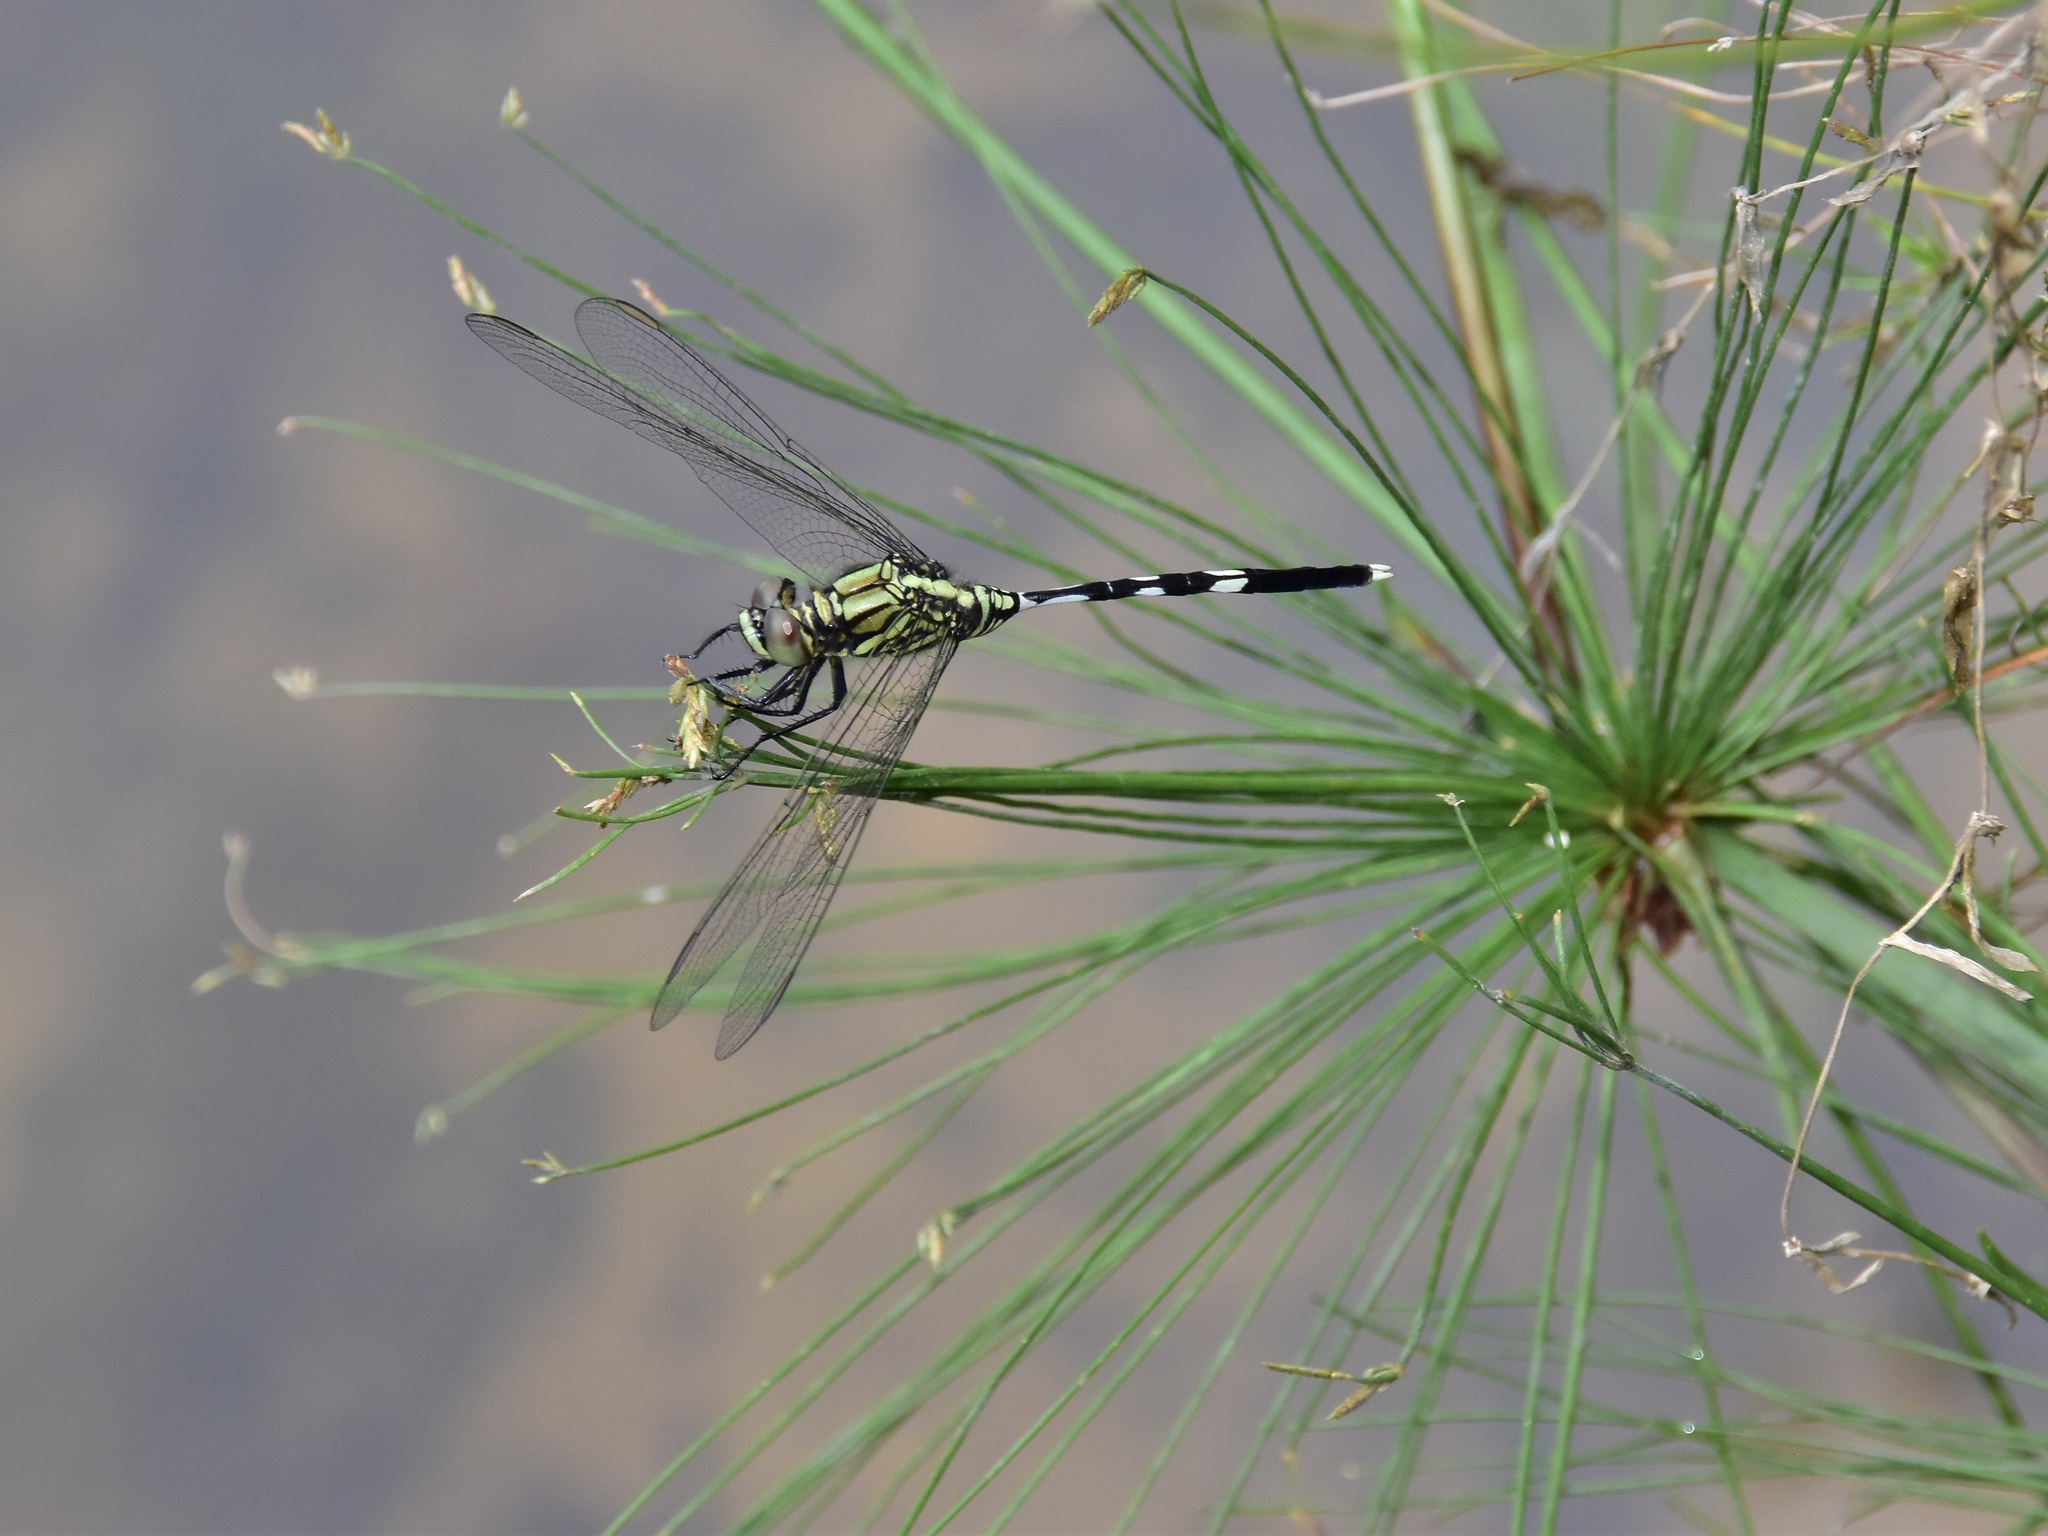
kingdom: Animalia
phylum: Arthropoda
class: Insecta
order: Odonata
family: Libellulidae
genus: Orthetrum
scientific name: Orthetrum sabina
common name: Slender skimmer
